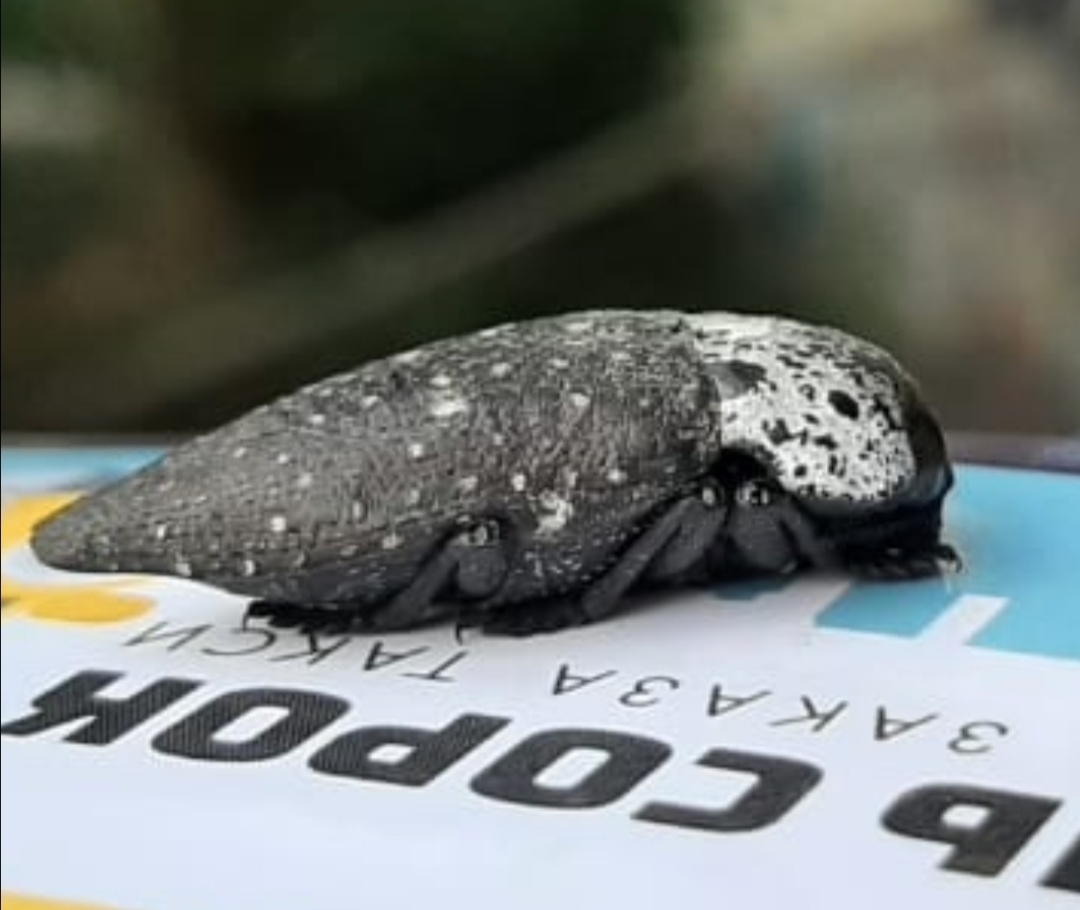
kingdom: Animalia
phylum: Arthropoda
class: Insecta
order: Coleoptera
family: Buprestidae
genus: Capnodis
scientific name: Capnodis tenebrionis
